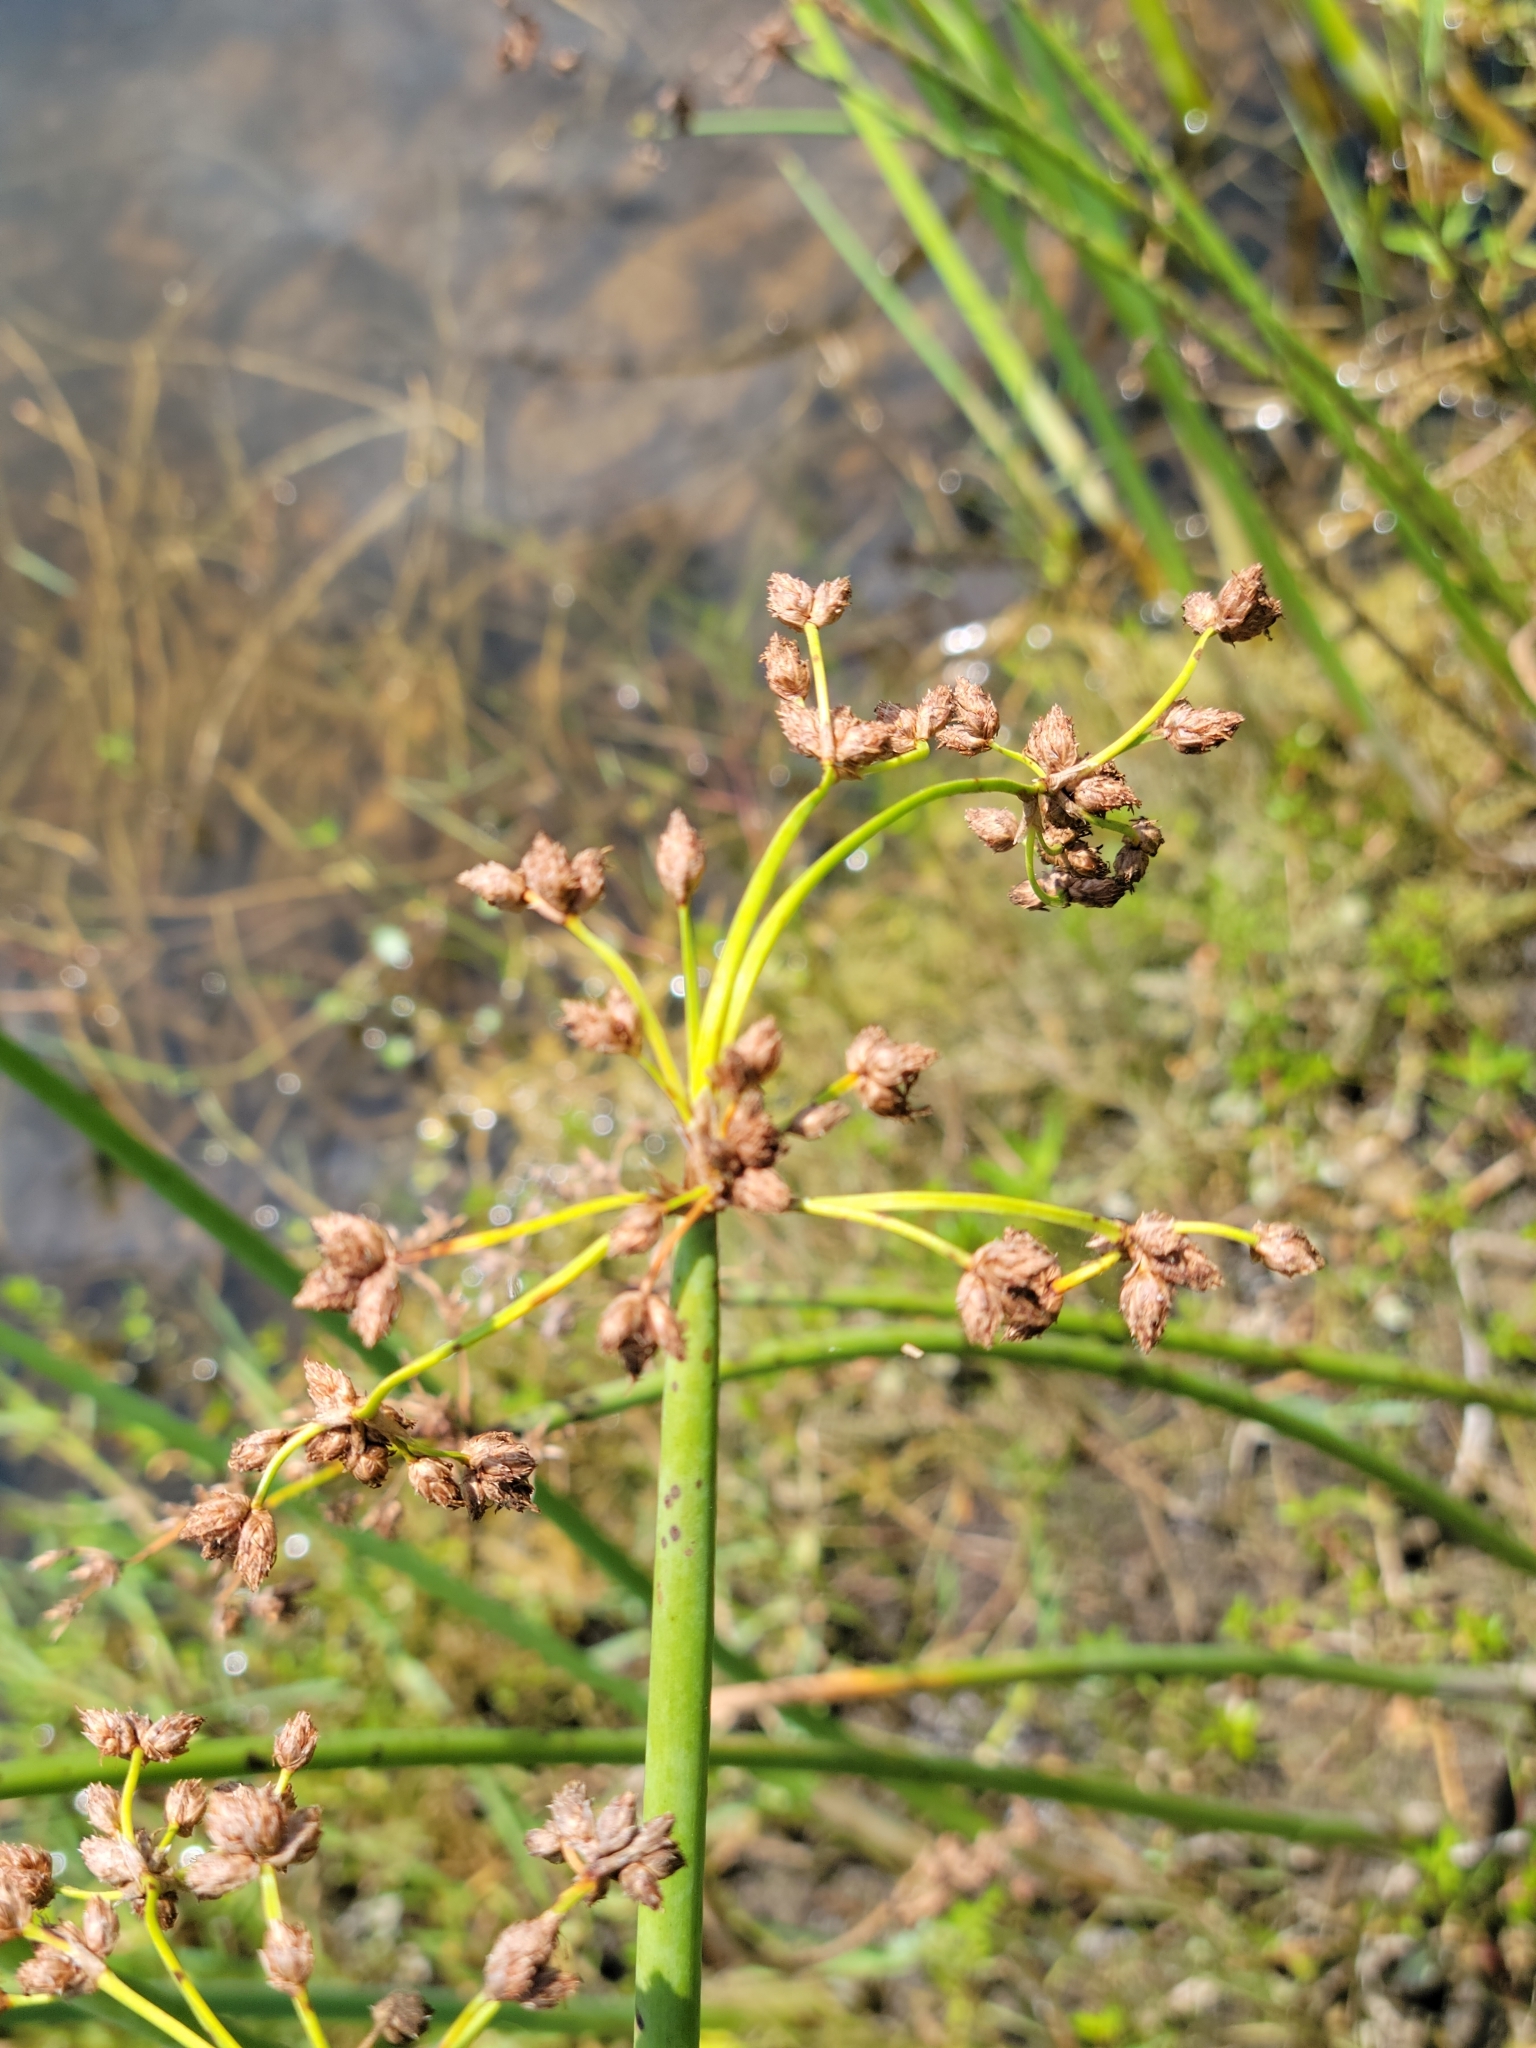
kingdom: Plantae
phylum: Tracheophyta
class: Liliopsida
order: Poales
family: Cyperaceae
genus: Schoenoplectus
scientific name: Schoenoplectus tabernaemontani
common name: Grey club-rush
